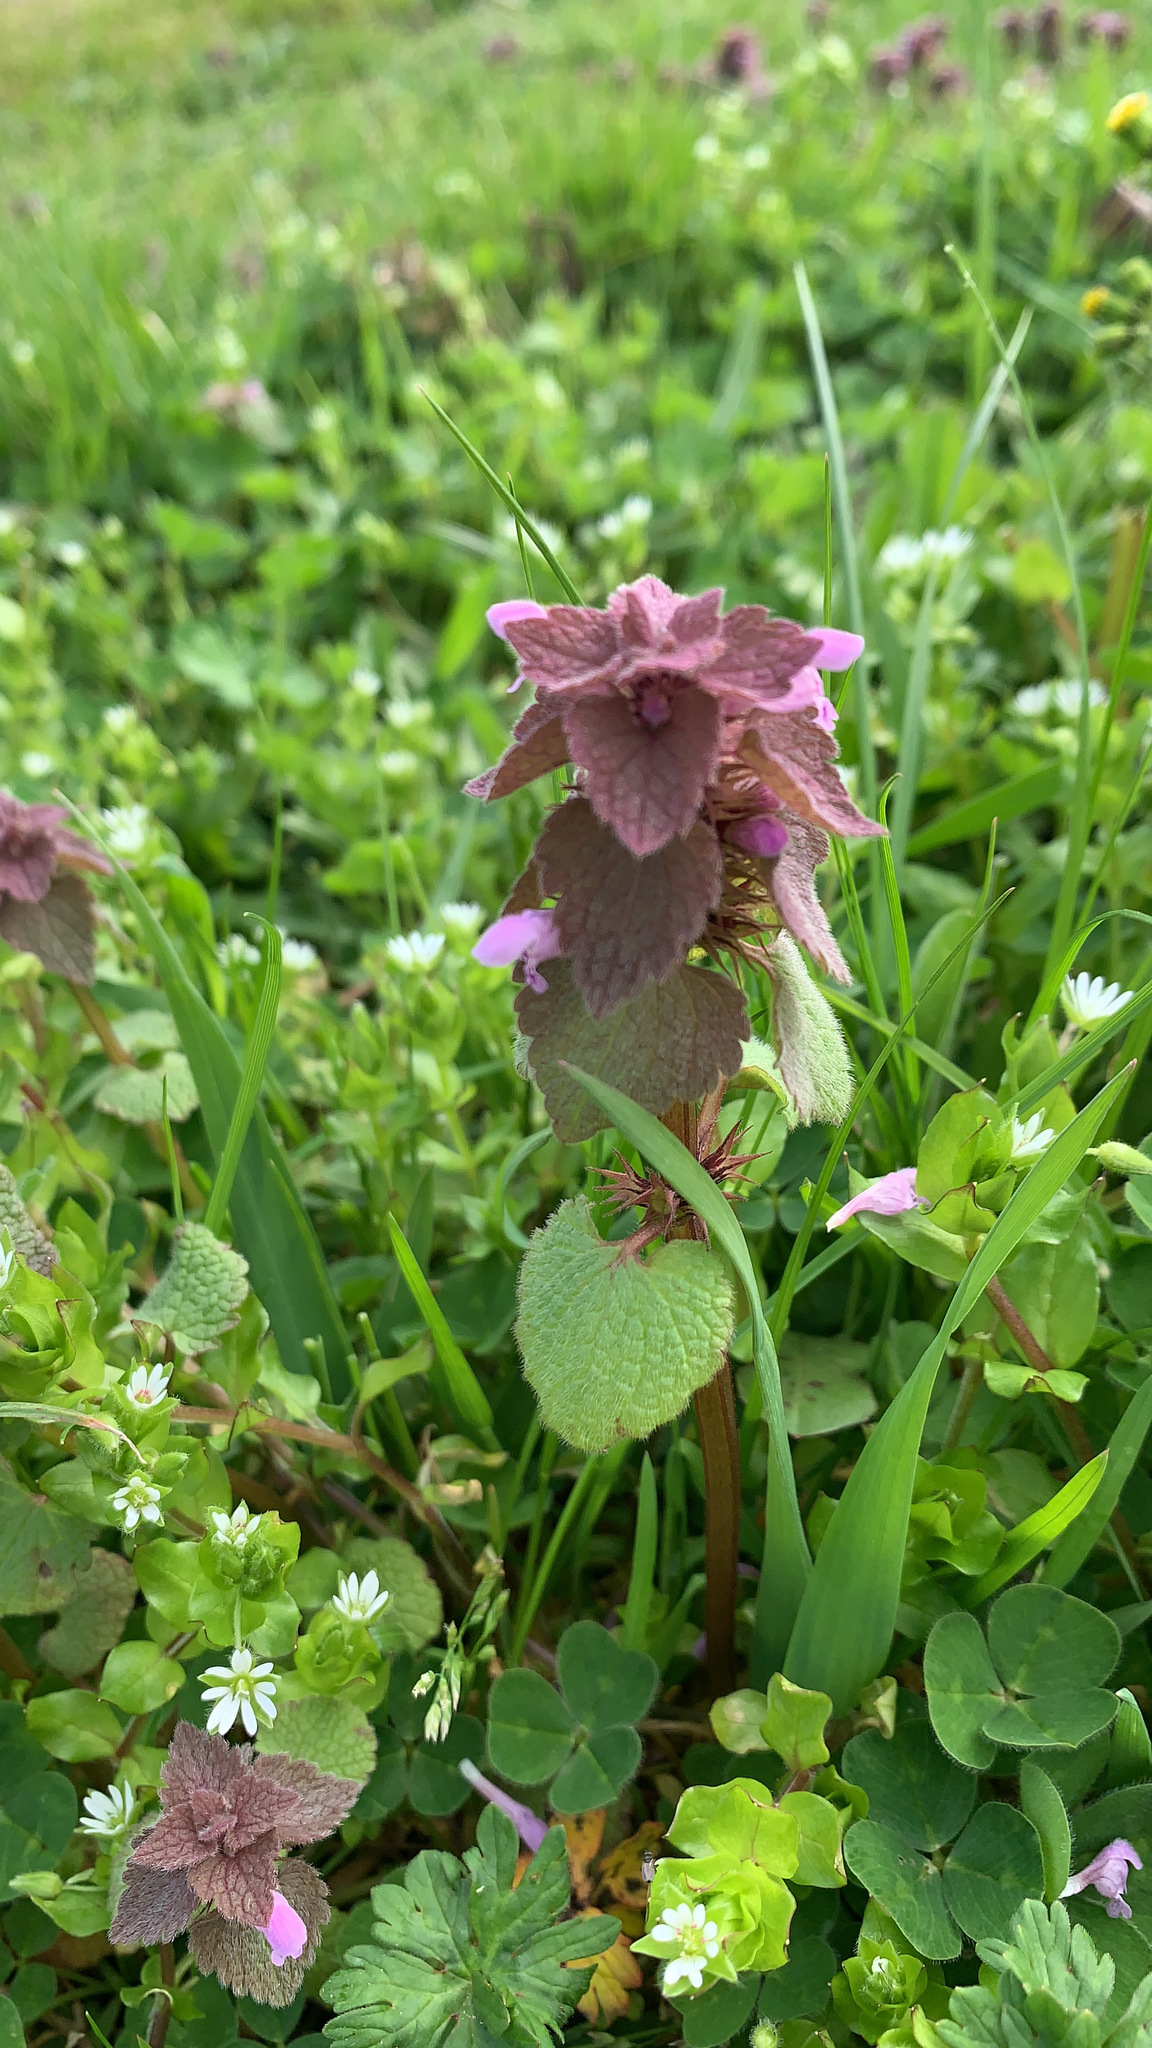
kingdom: Plantae
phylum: Tracheophyta
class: Magnoliopsida
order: Lamiales
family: Lamiaceae
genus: Lamium
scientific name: Lamium purpureum
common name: Red dead-nettle
